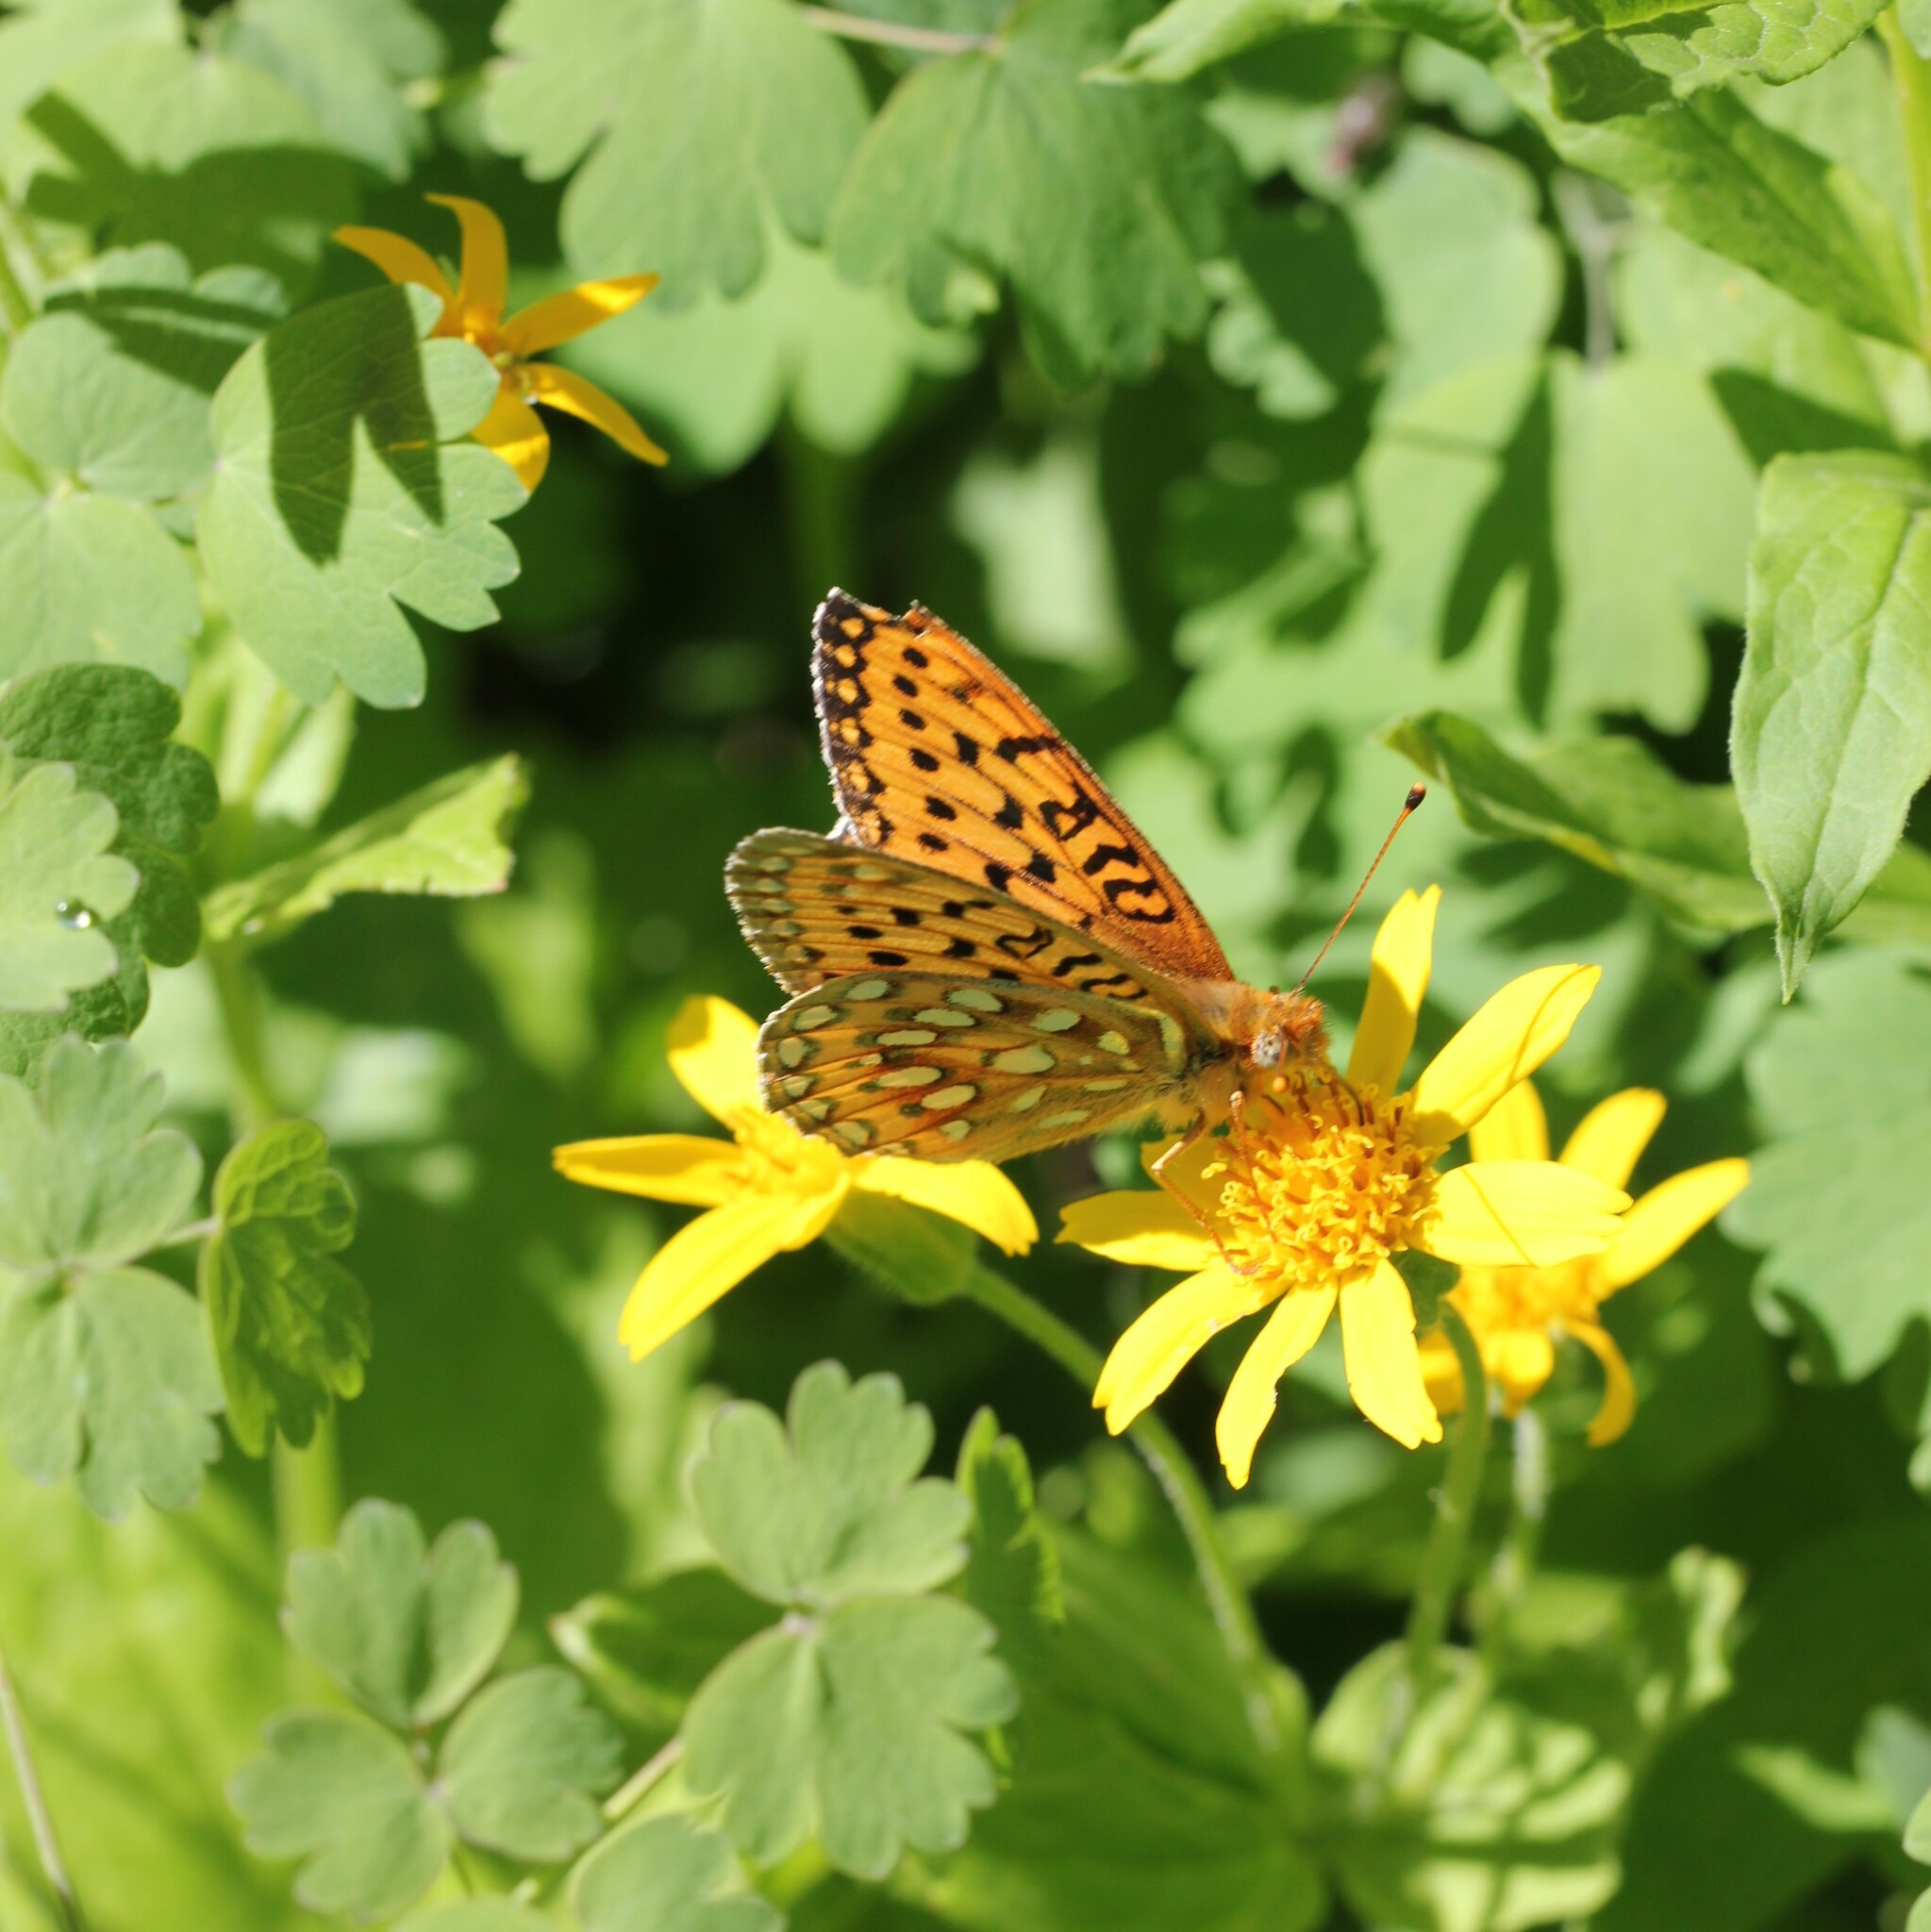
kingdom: Animalia
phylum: Arthropoda
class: Insecta
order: Lepidoptera
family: Nymphalidae
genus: Speyeria
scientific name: Speyeria mormonia
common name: Mormon fritillary
